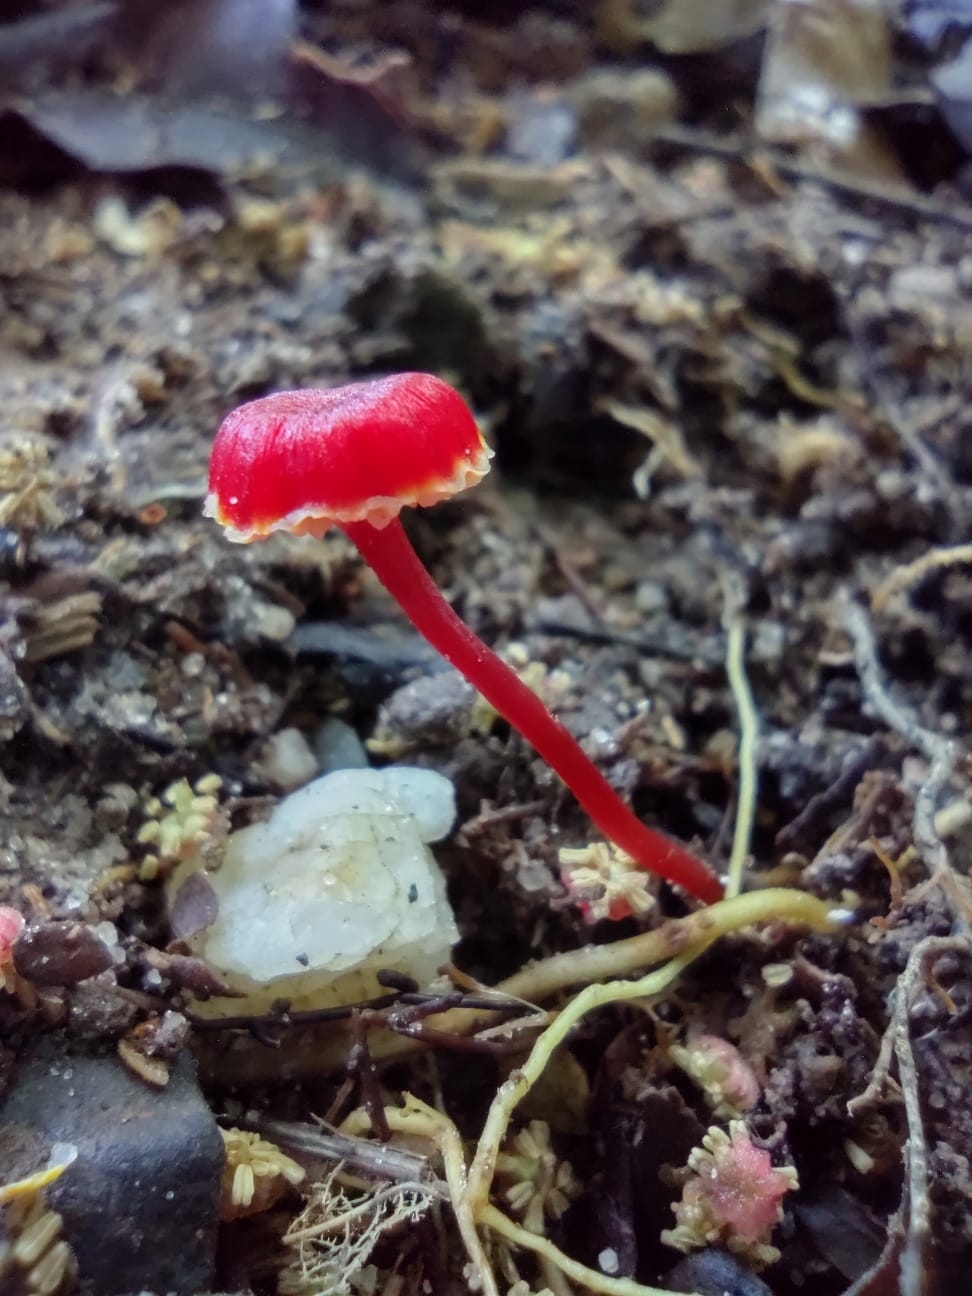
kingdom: Fungi
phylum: Basidiomycota
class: Agaricomycetes
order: Agaricales
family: Hygrophoraceae
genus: Hygrocybe
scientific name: Hygrocybe miniata
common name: Vermilion waxcap
